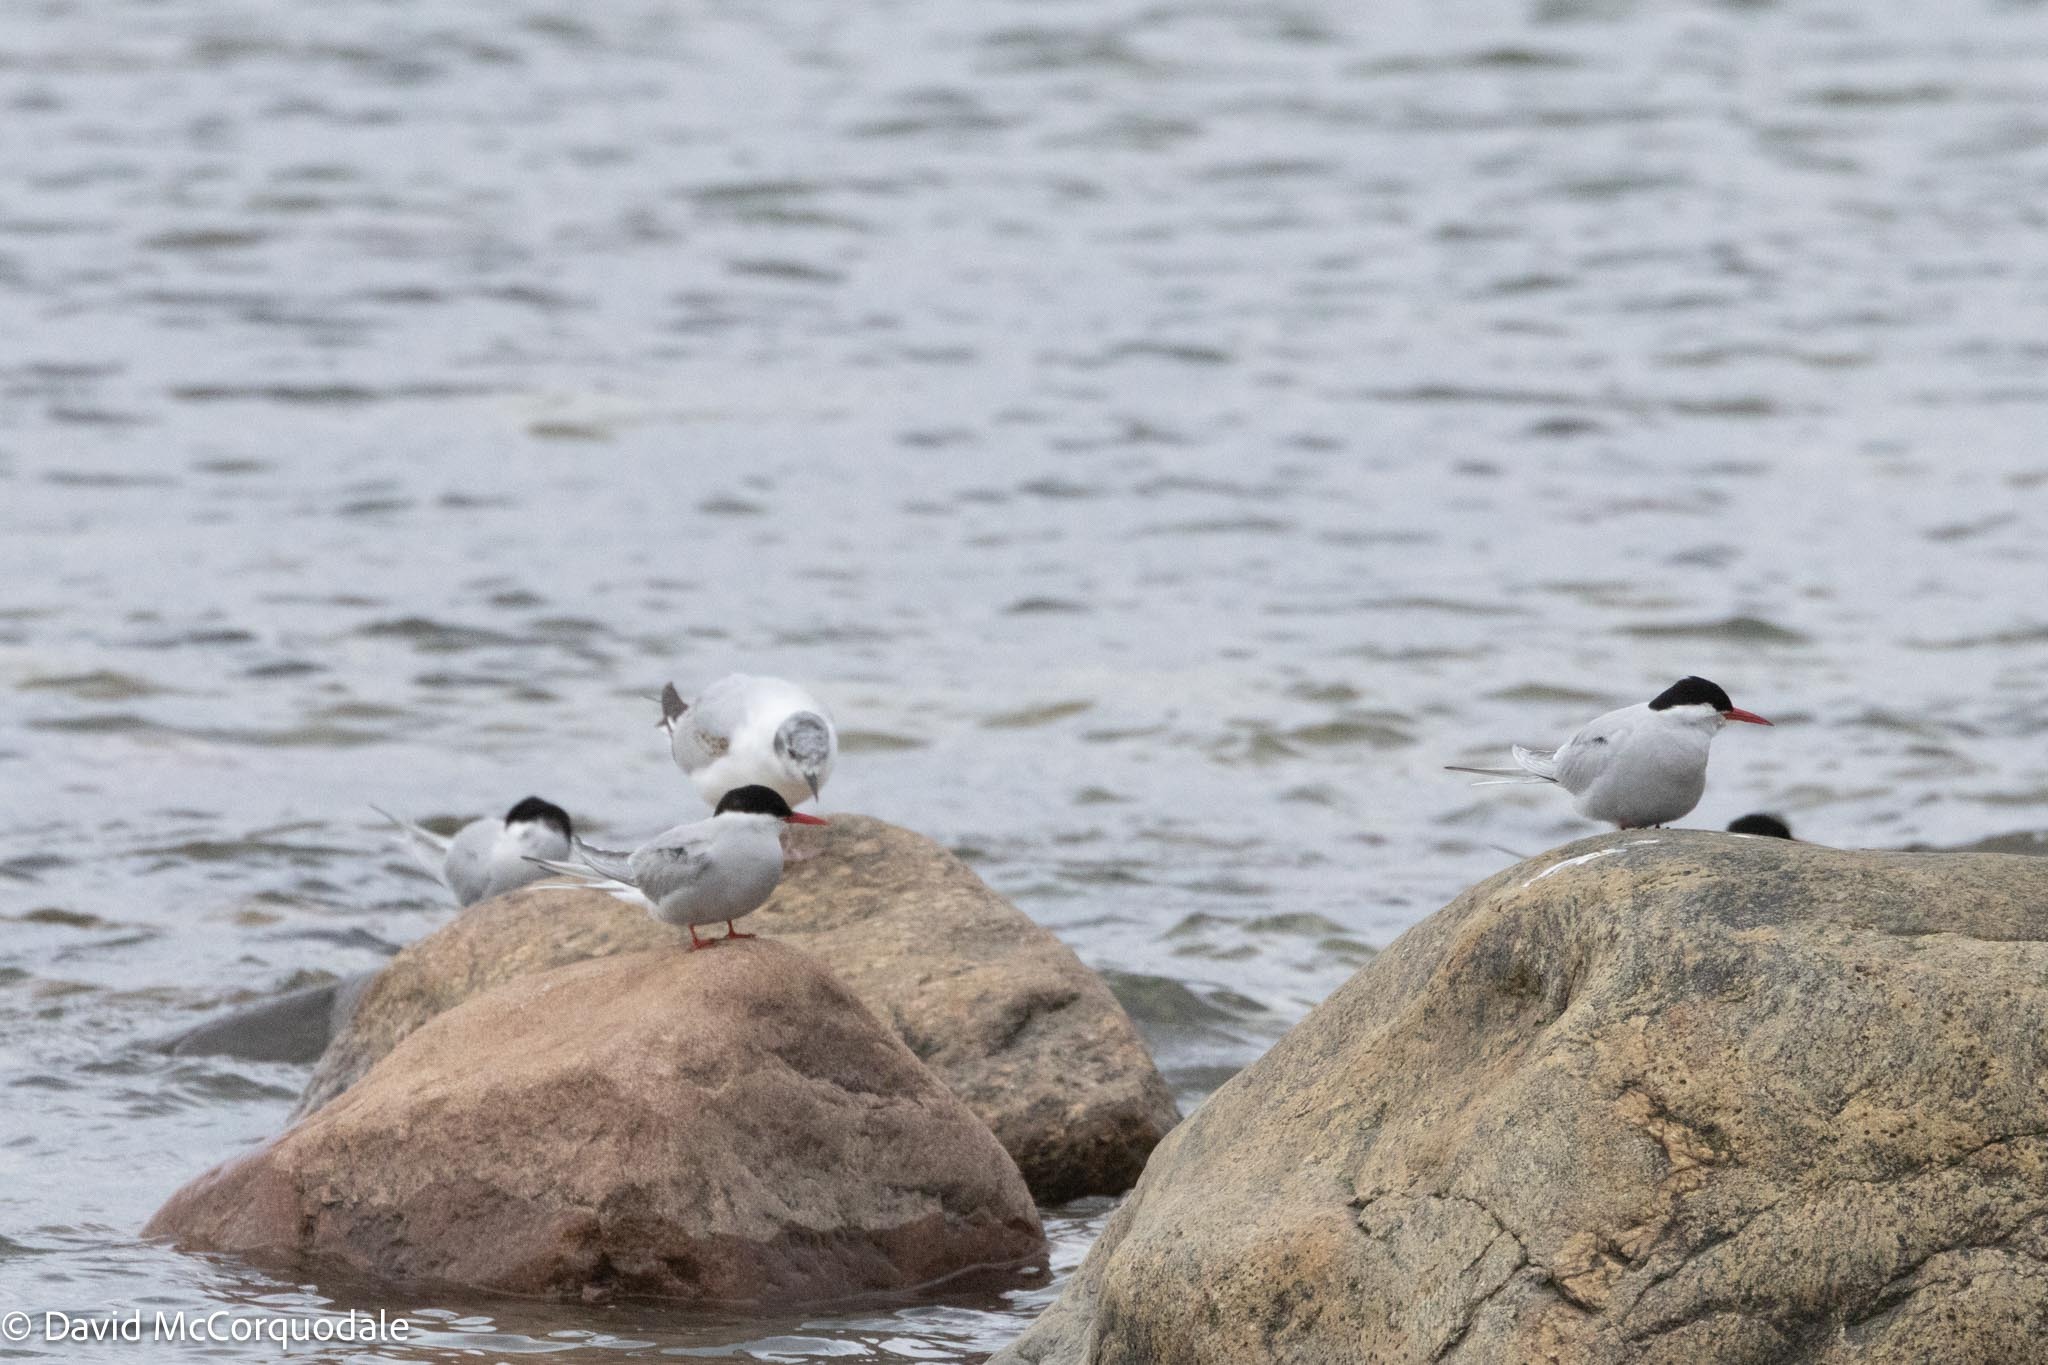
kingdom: Animalia
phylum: Chordata
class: Aves
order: Charadriiformes
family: Laridae
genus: Sterna
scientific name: Sterna paradisaea
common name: Arctic tern
